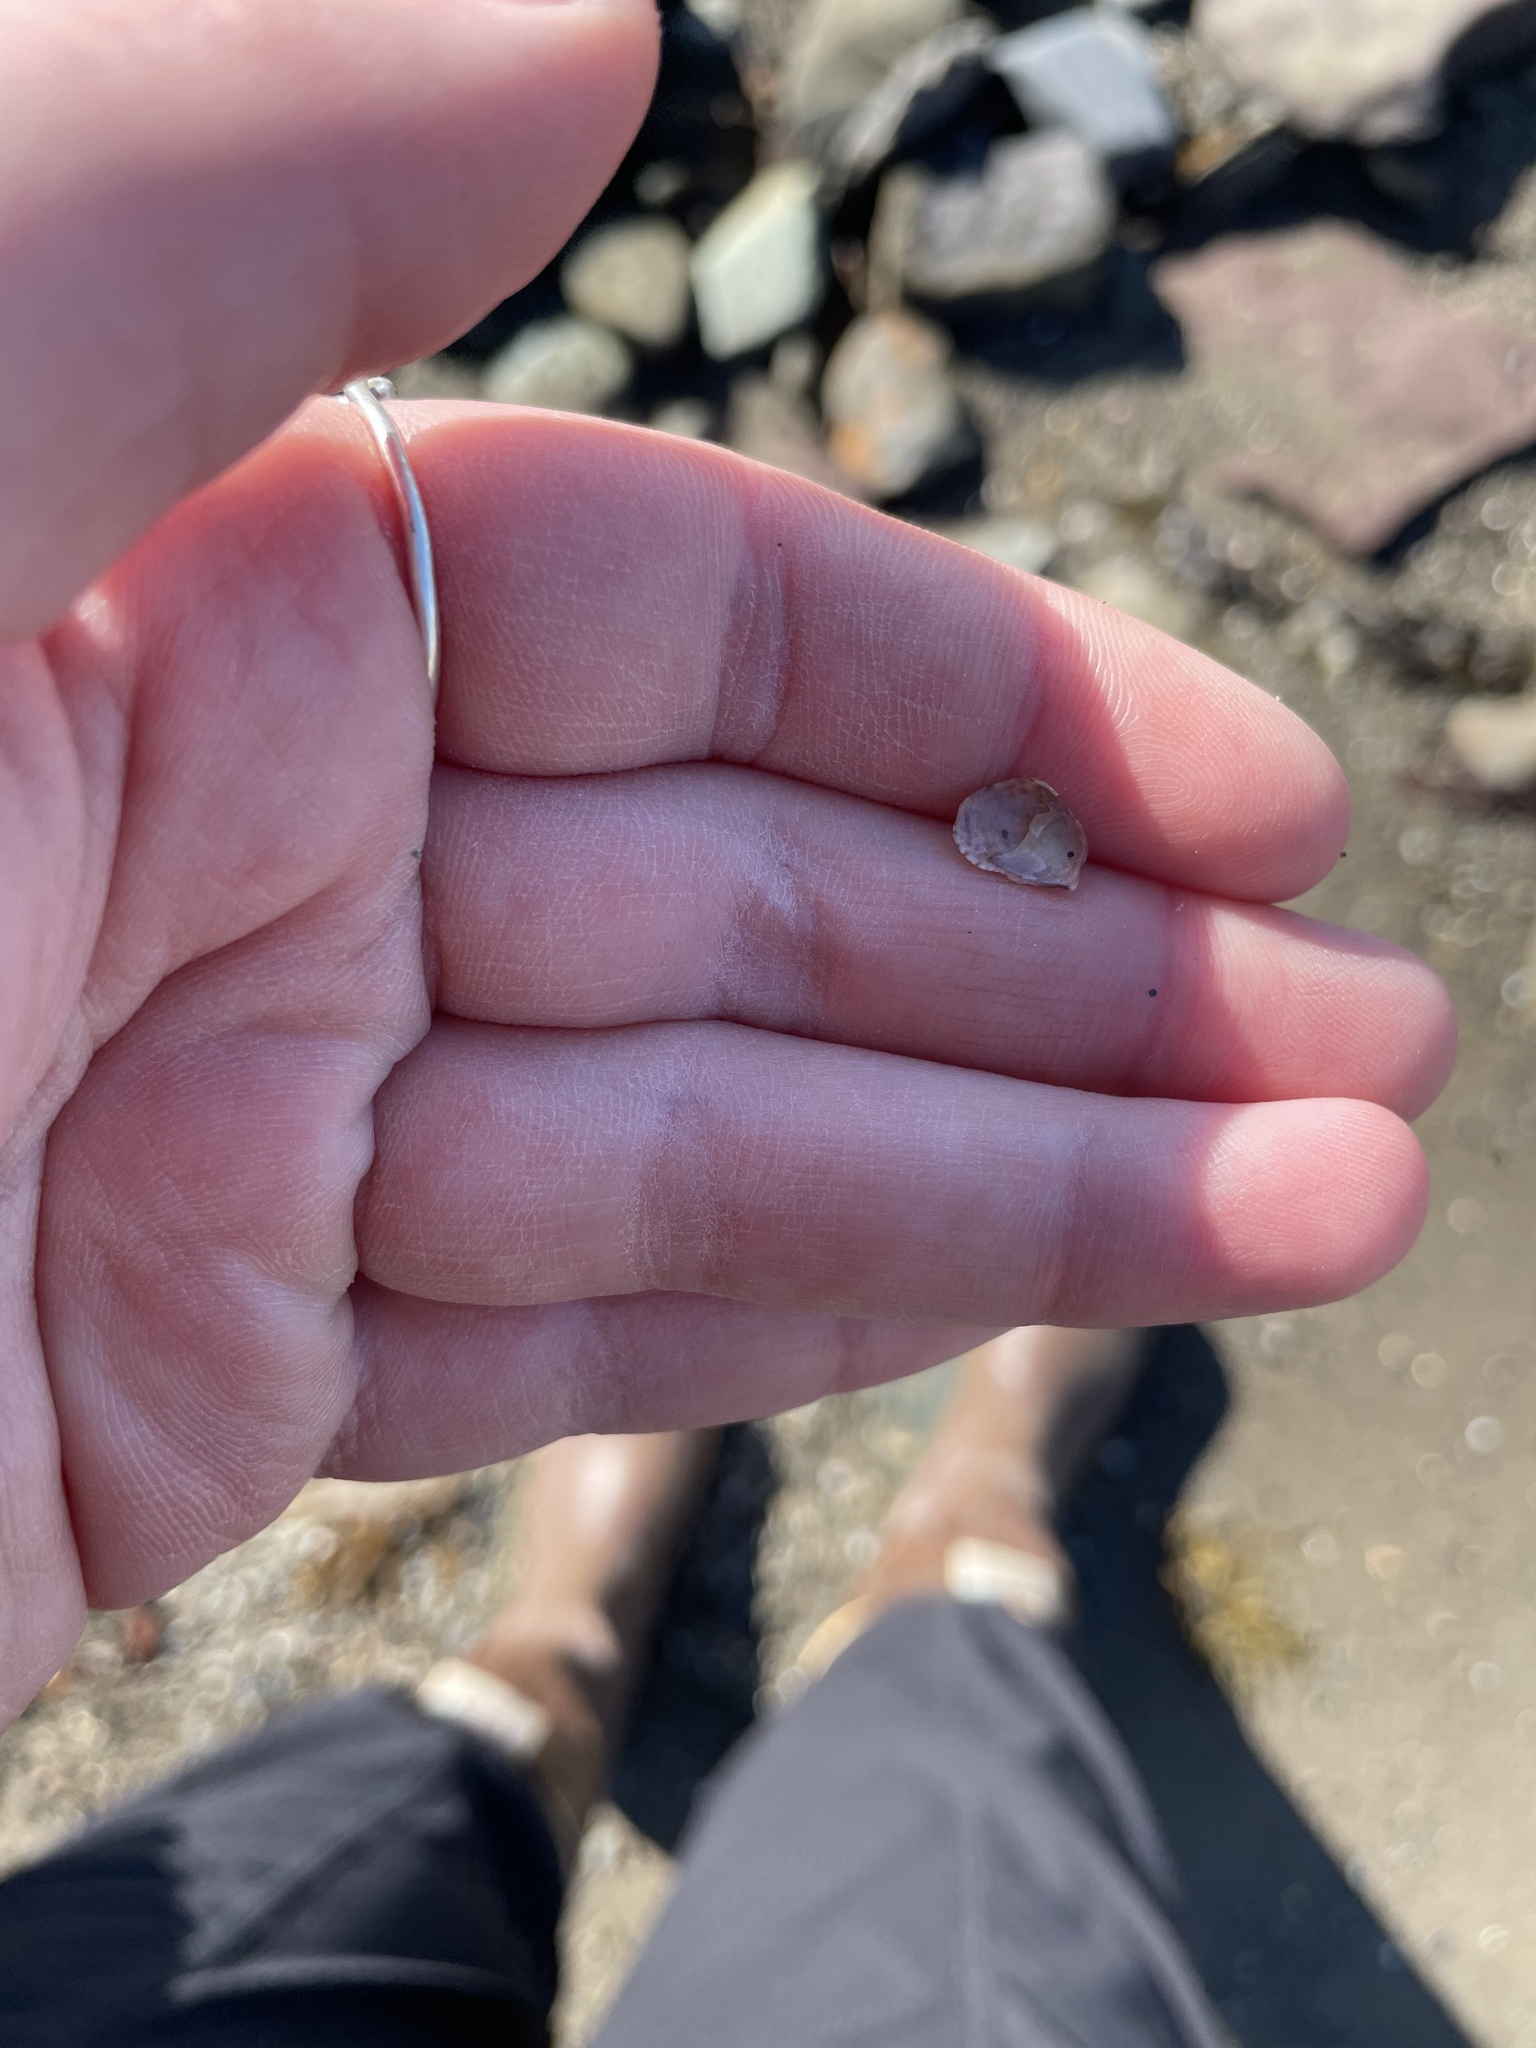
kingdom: Animalia
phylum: Mollusca
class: Gastropoda
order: Littorinimorpha
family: Calyptraeidae
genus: Crepidula
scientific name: Crepidula fornicata
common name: Slipper limpet
